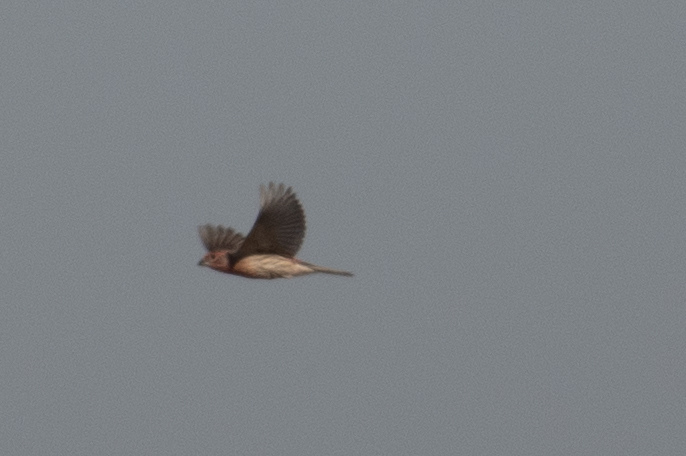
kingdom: Animalia
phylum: Chordata
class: Aves
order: Passeriformes
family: Fringillidae
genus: Haemorhous
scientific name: Haemorhous mexicanus
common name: House finch
